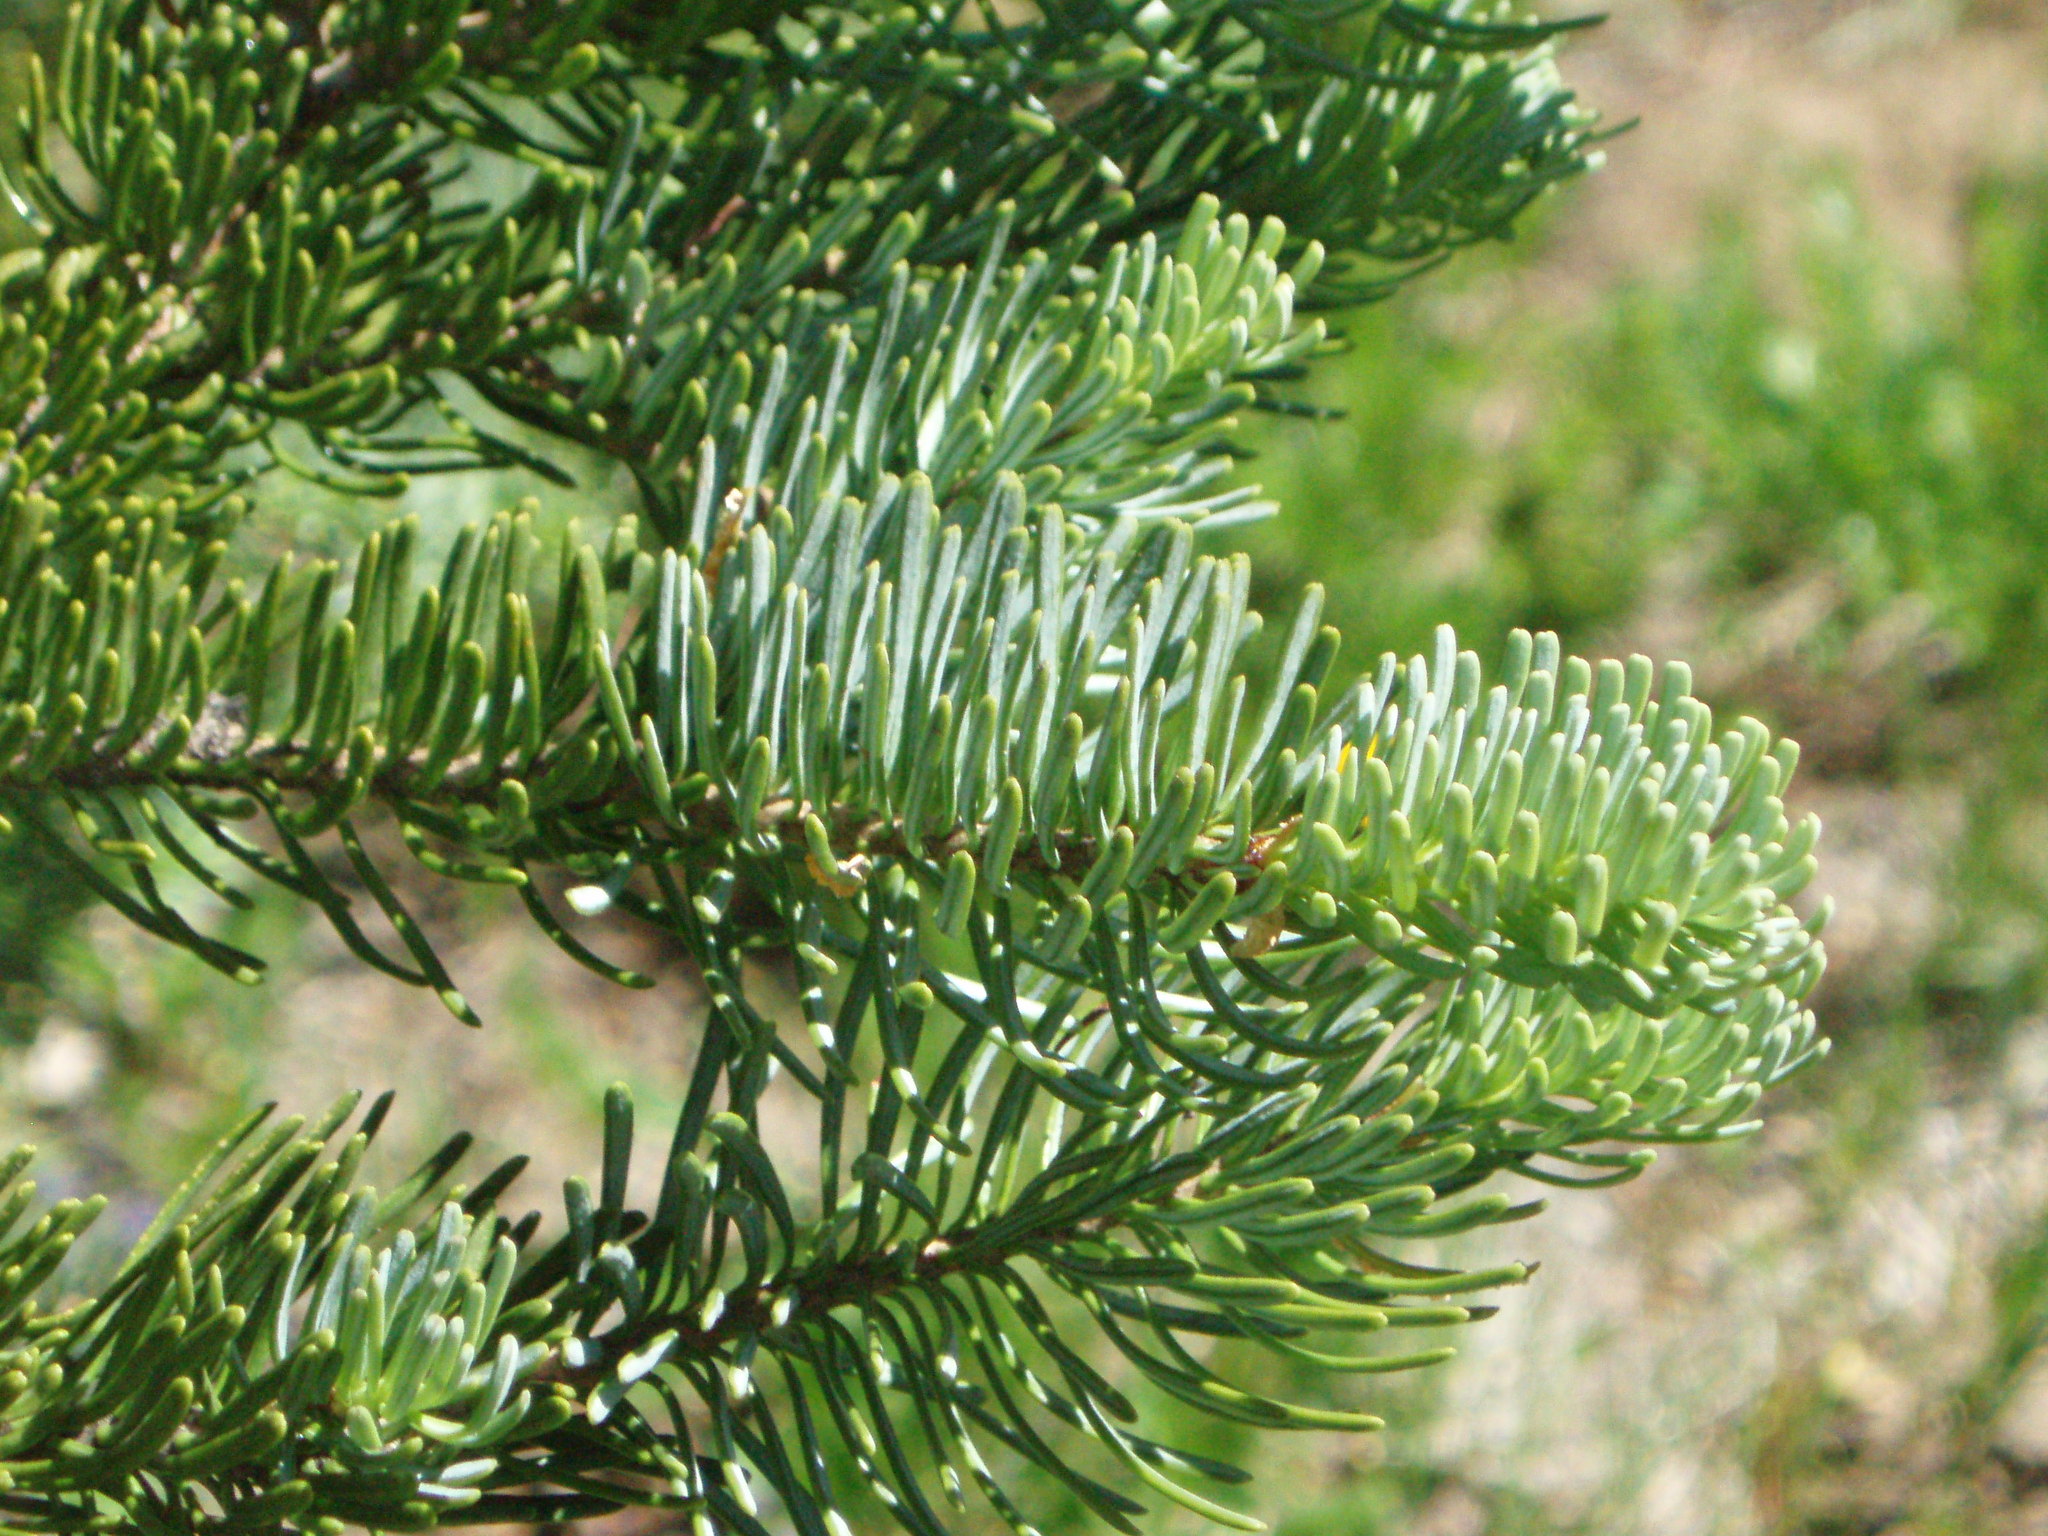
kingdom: Plantae
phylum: Tracheophyta
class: Pinopsida
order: Pinales
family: Pinaceae
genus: Abies
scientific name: Abies lasiocarpa
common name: Subalpine fir
